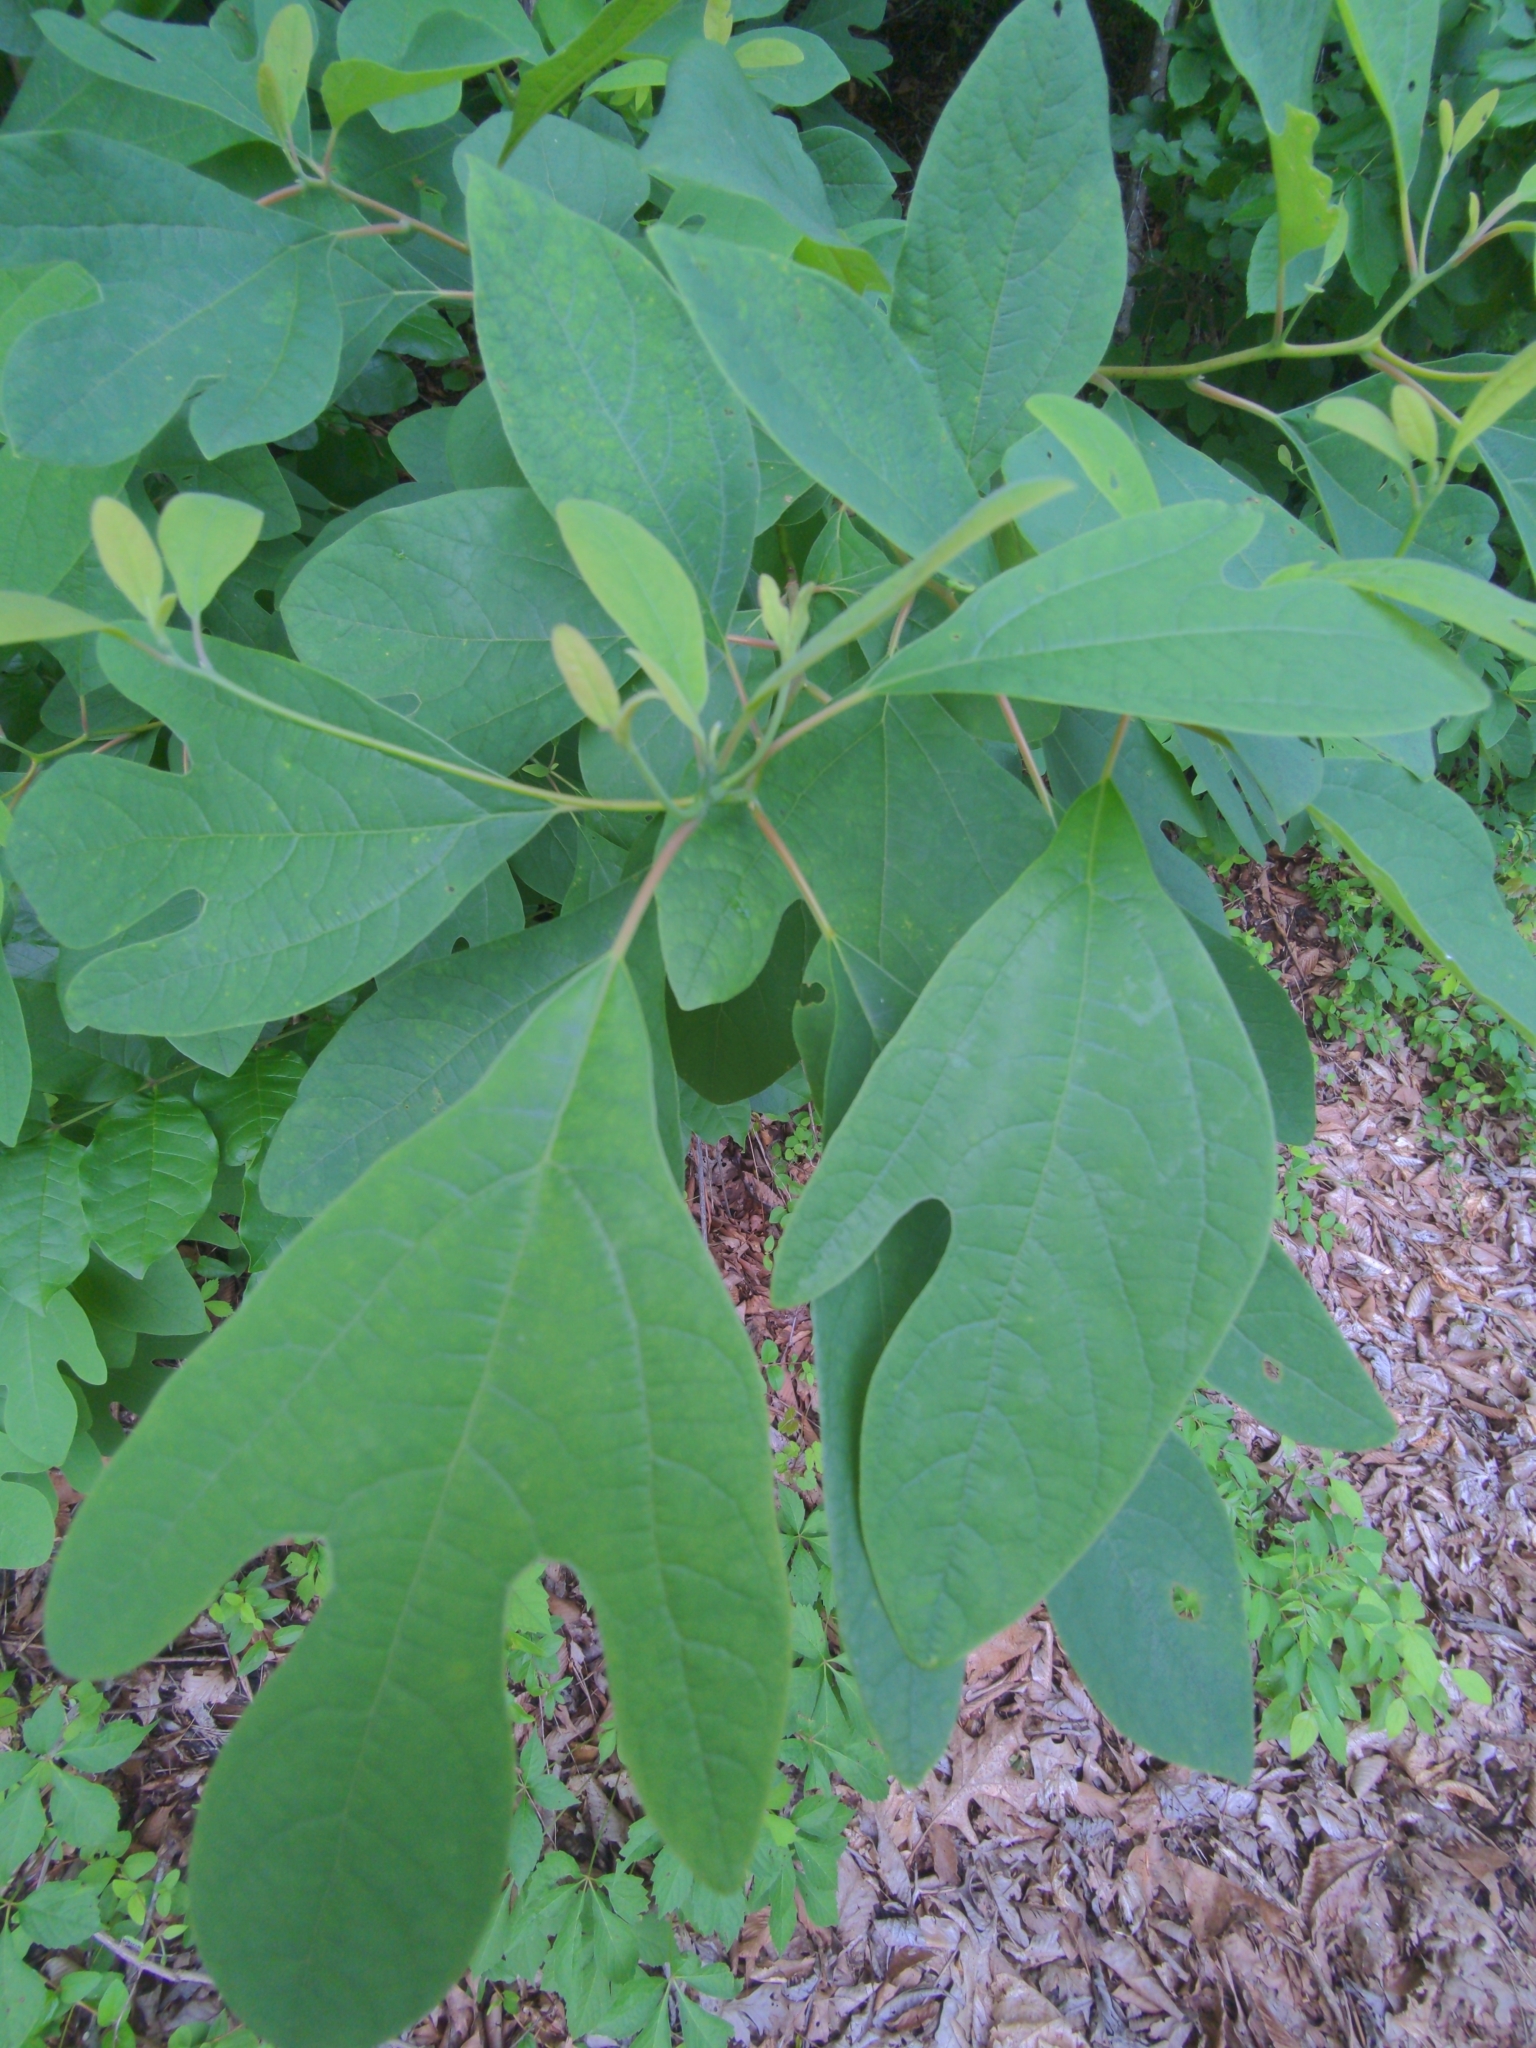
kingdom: Plantae
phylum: Tracheophyta
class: Magnoliopsida
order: Laurales
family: Lauraceae
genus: Sassafras
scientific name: Sassafras albidum
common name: Sassafras
